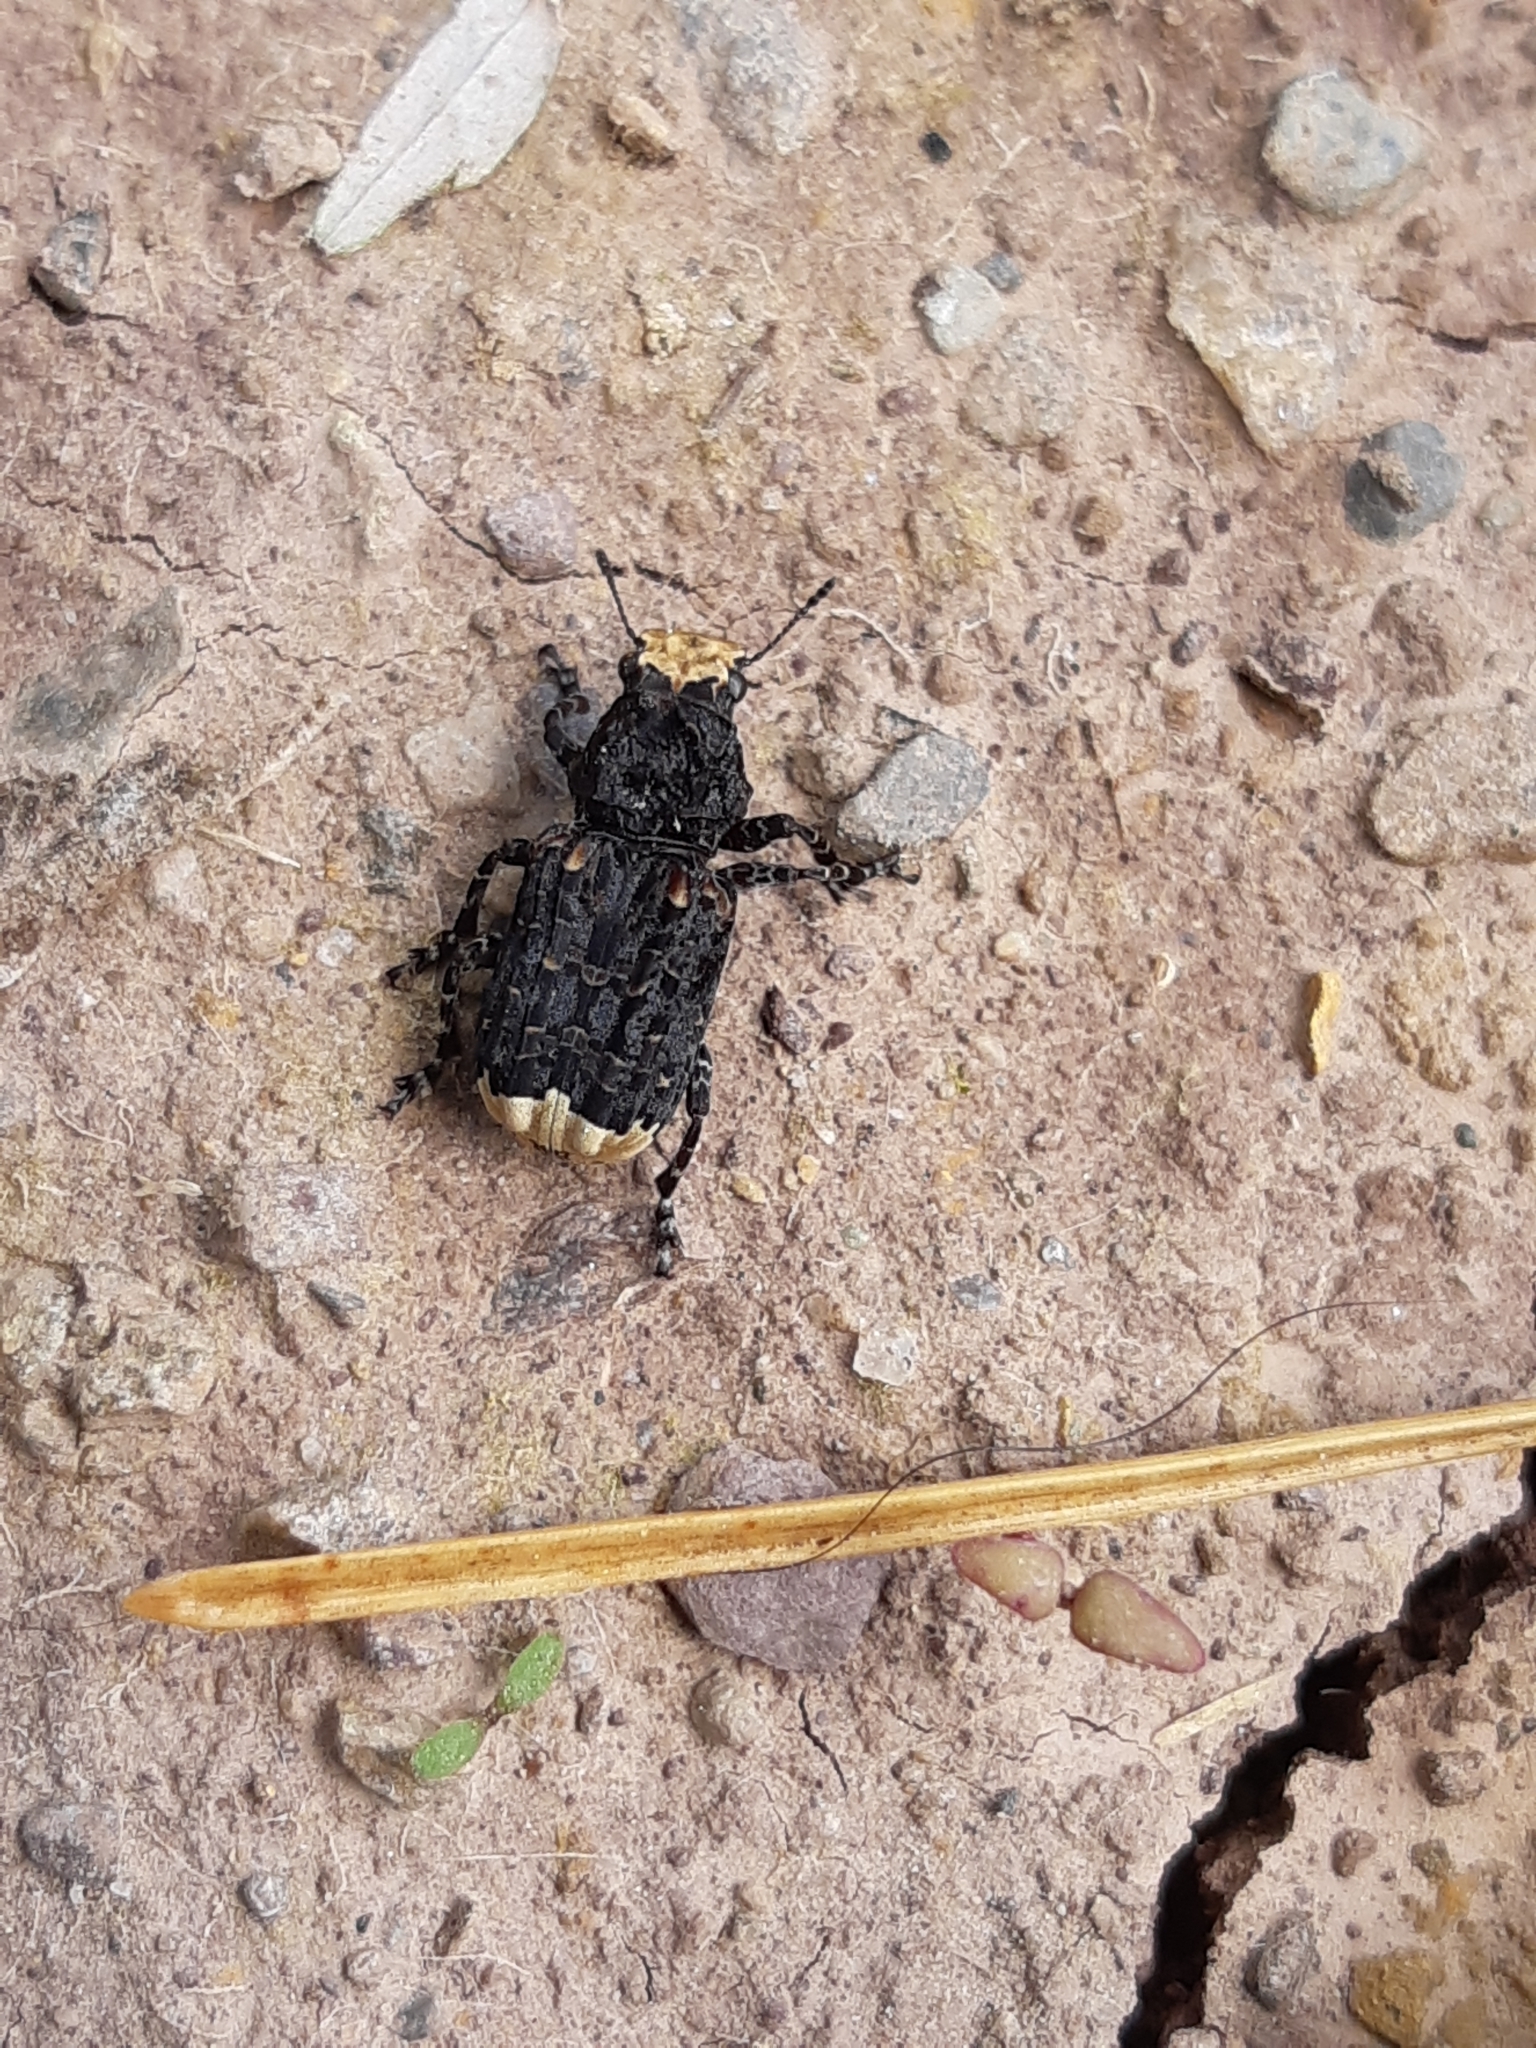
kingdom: Animalia
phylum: Arthropoda
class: Insecta
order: Coleoptera
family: Anthribidae
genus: Platyrhinus
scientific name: Platyrhinus resinosus
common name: Cramp-ball fungus weevil
